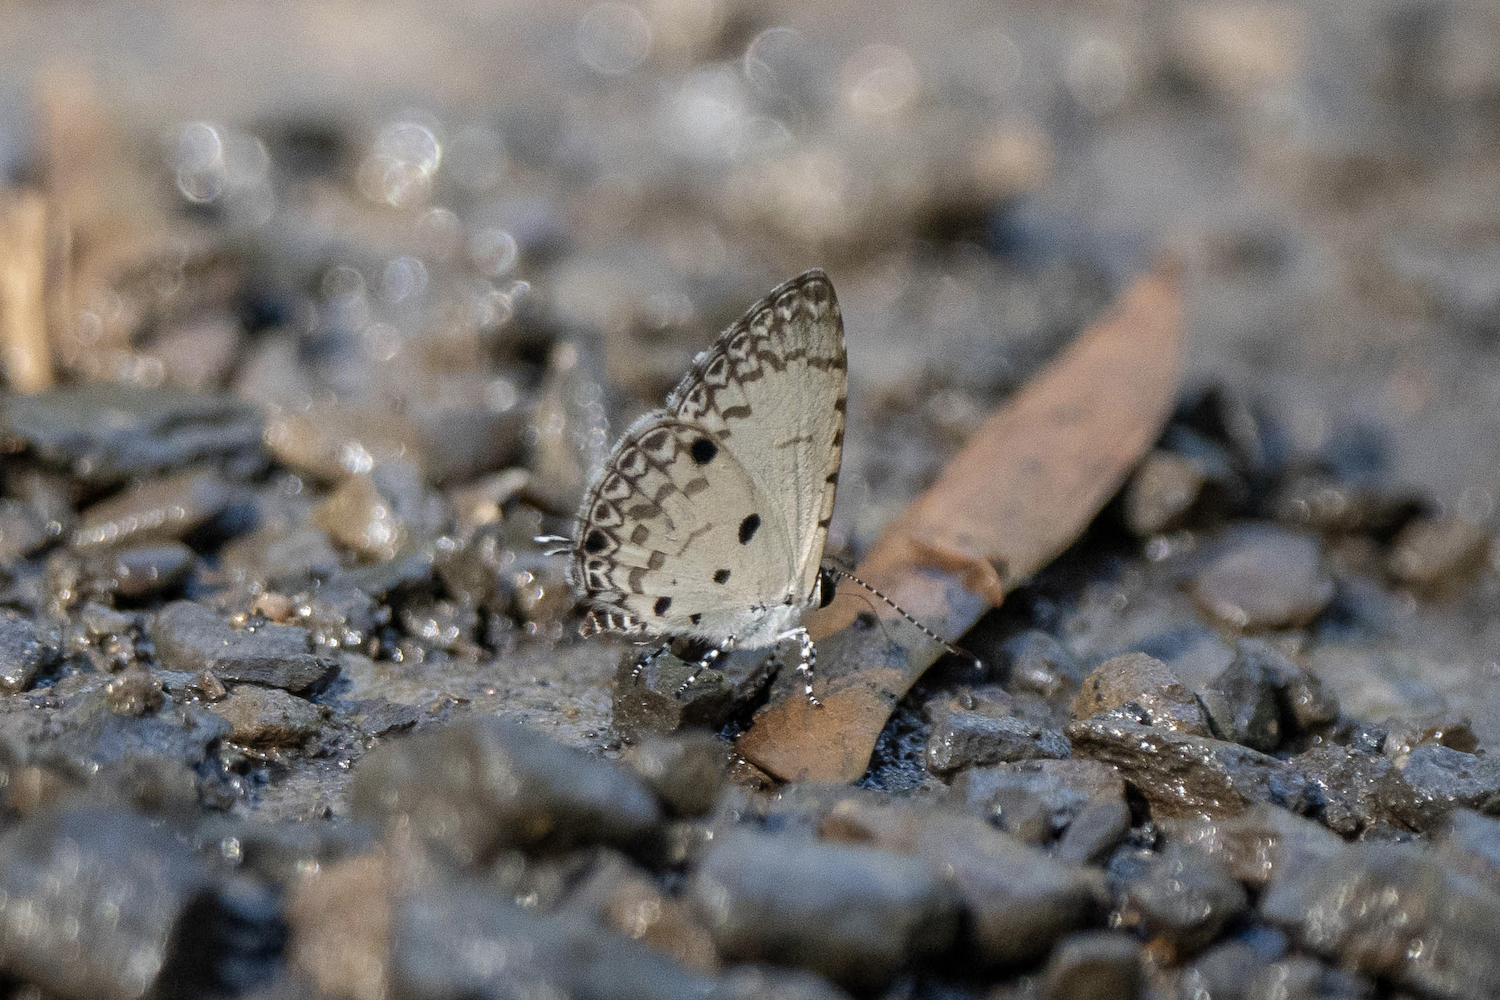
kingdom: Animalia
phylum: Arthropoda
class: Insecta
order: Lepidoptera
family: Lycaenidae
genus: Megisba
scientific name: Megisba malaya
